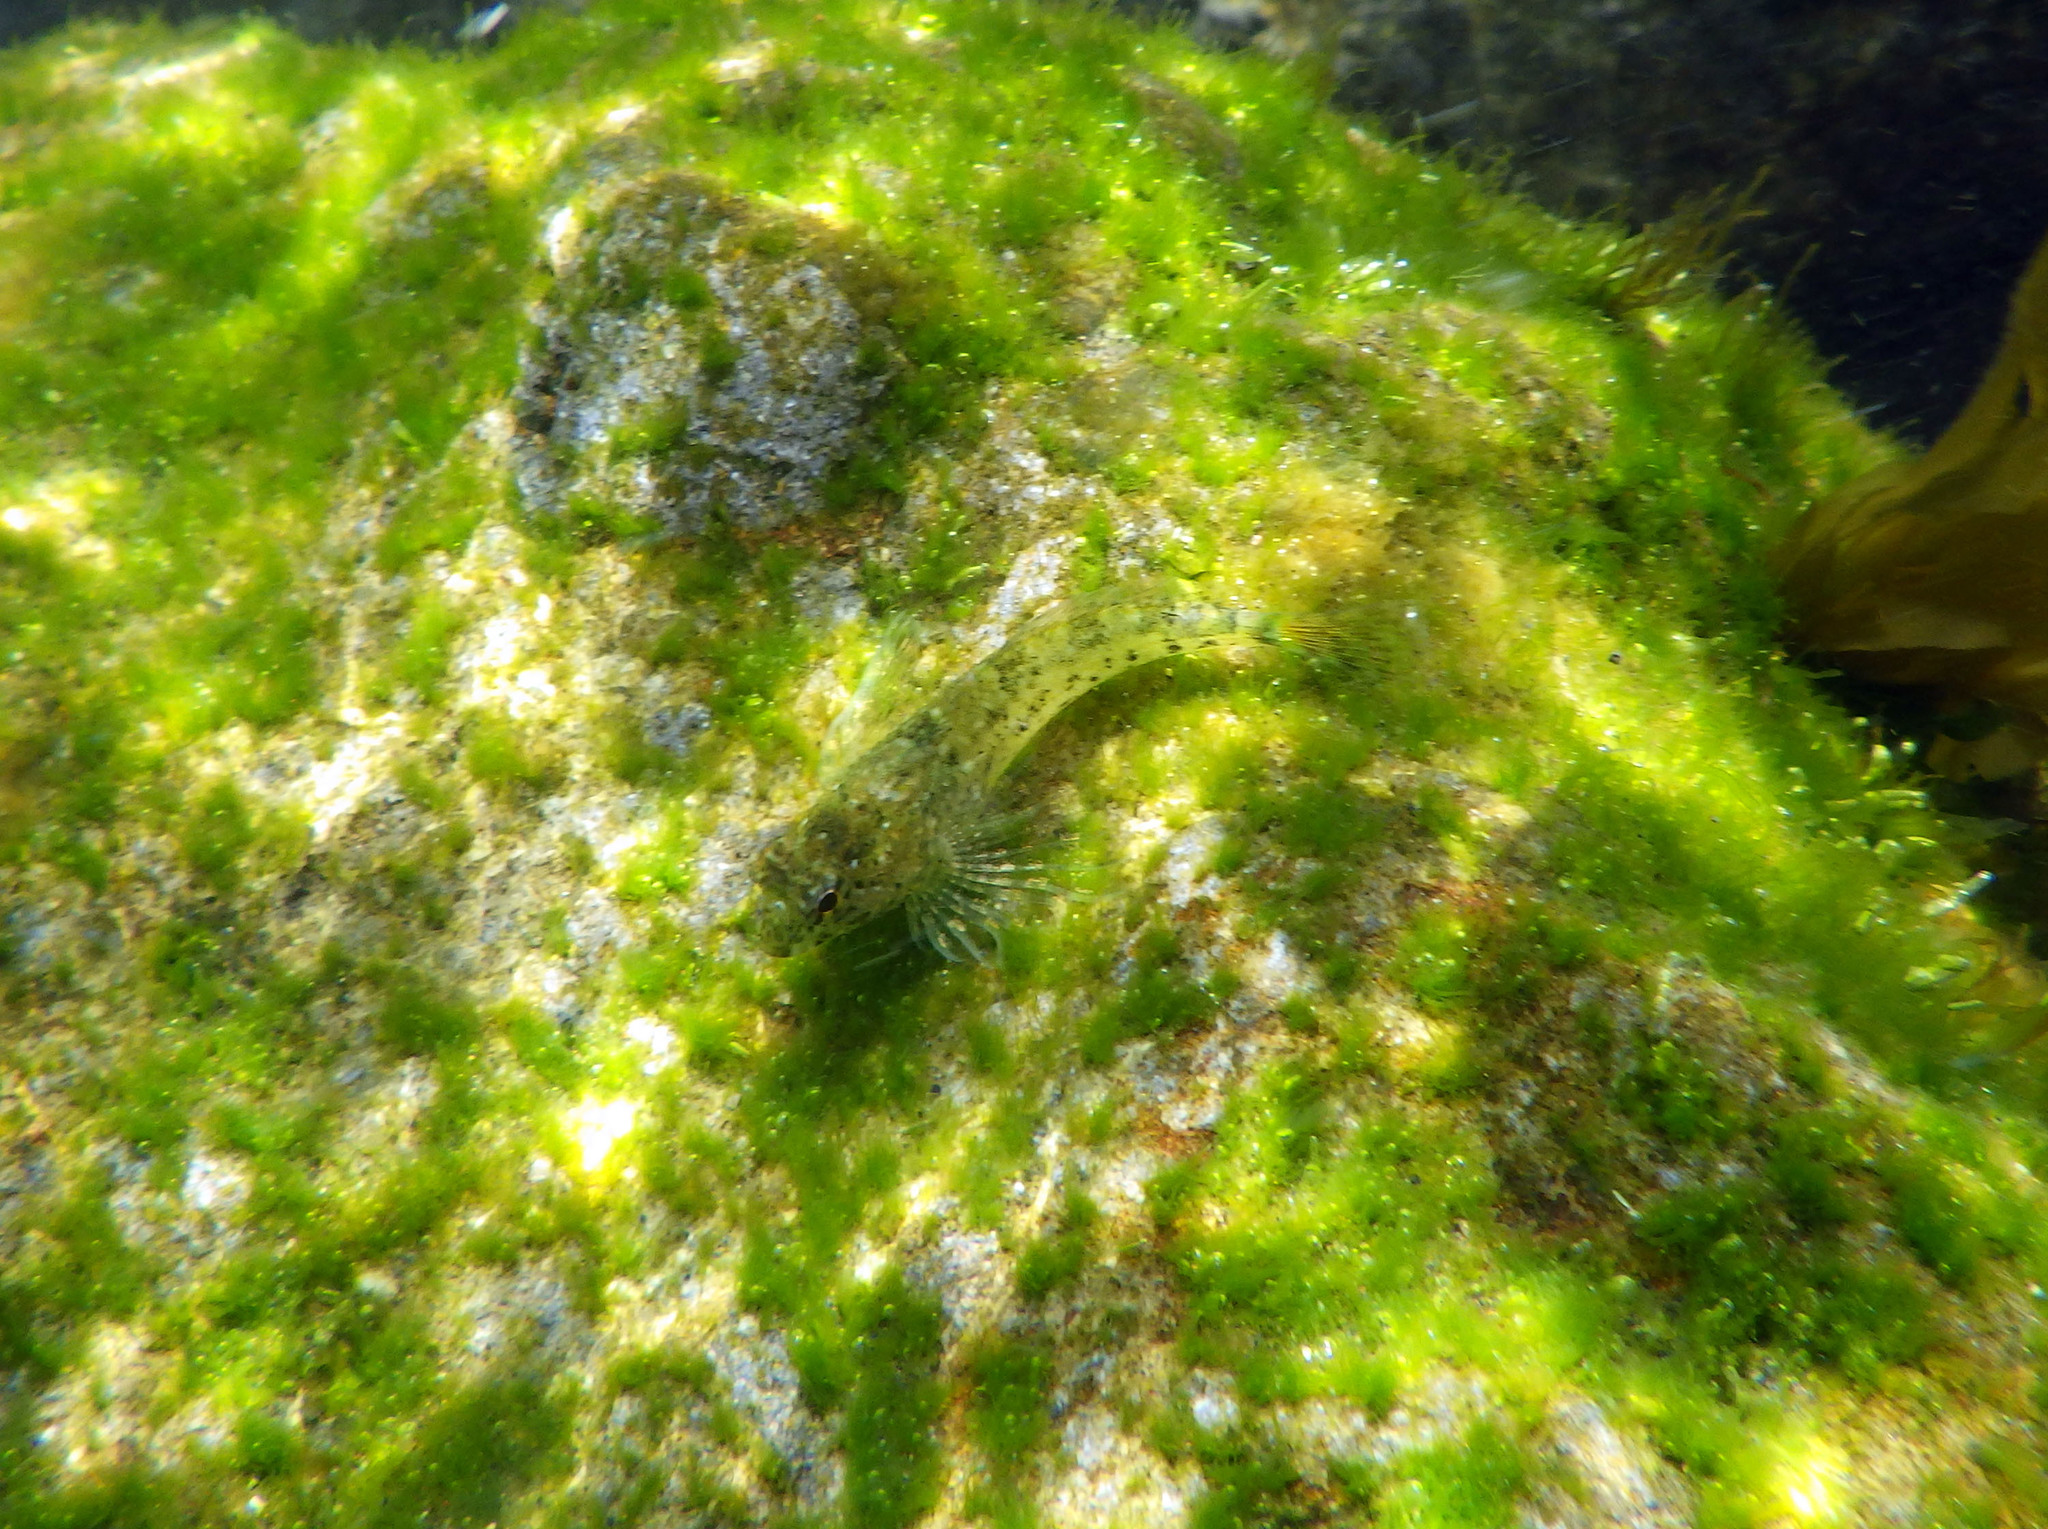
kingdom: Animalia
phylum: Chordata
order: Scorpaeniformes
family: Cottidae
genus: Clinocottus
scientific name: Clinocottus analis
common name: Woolly sculpin
